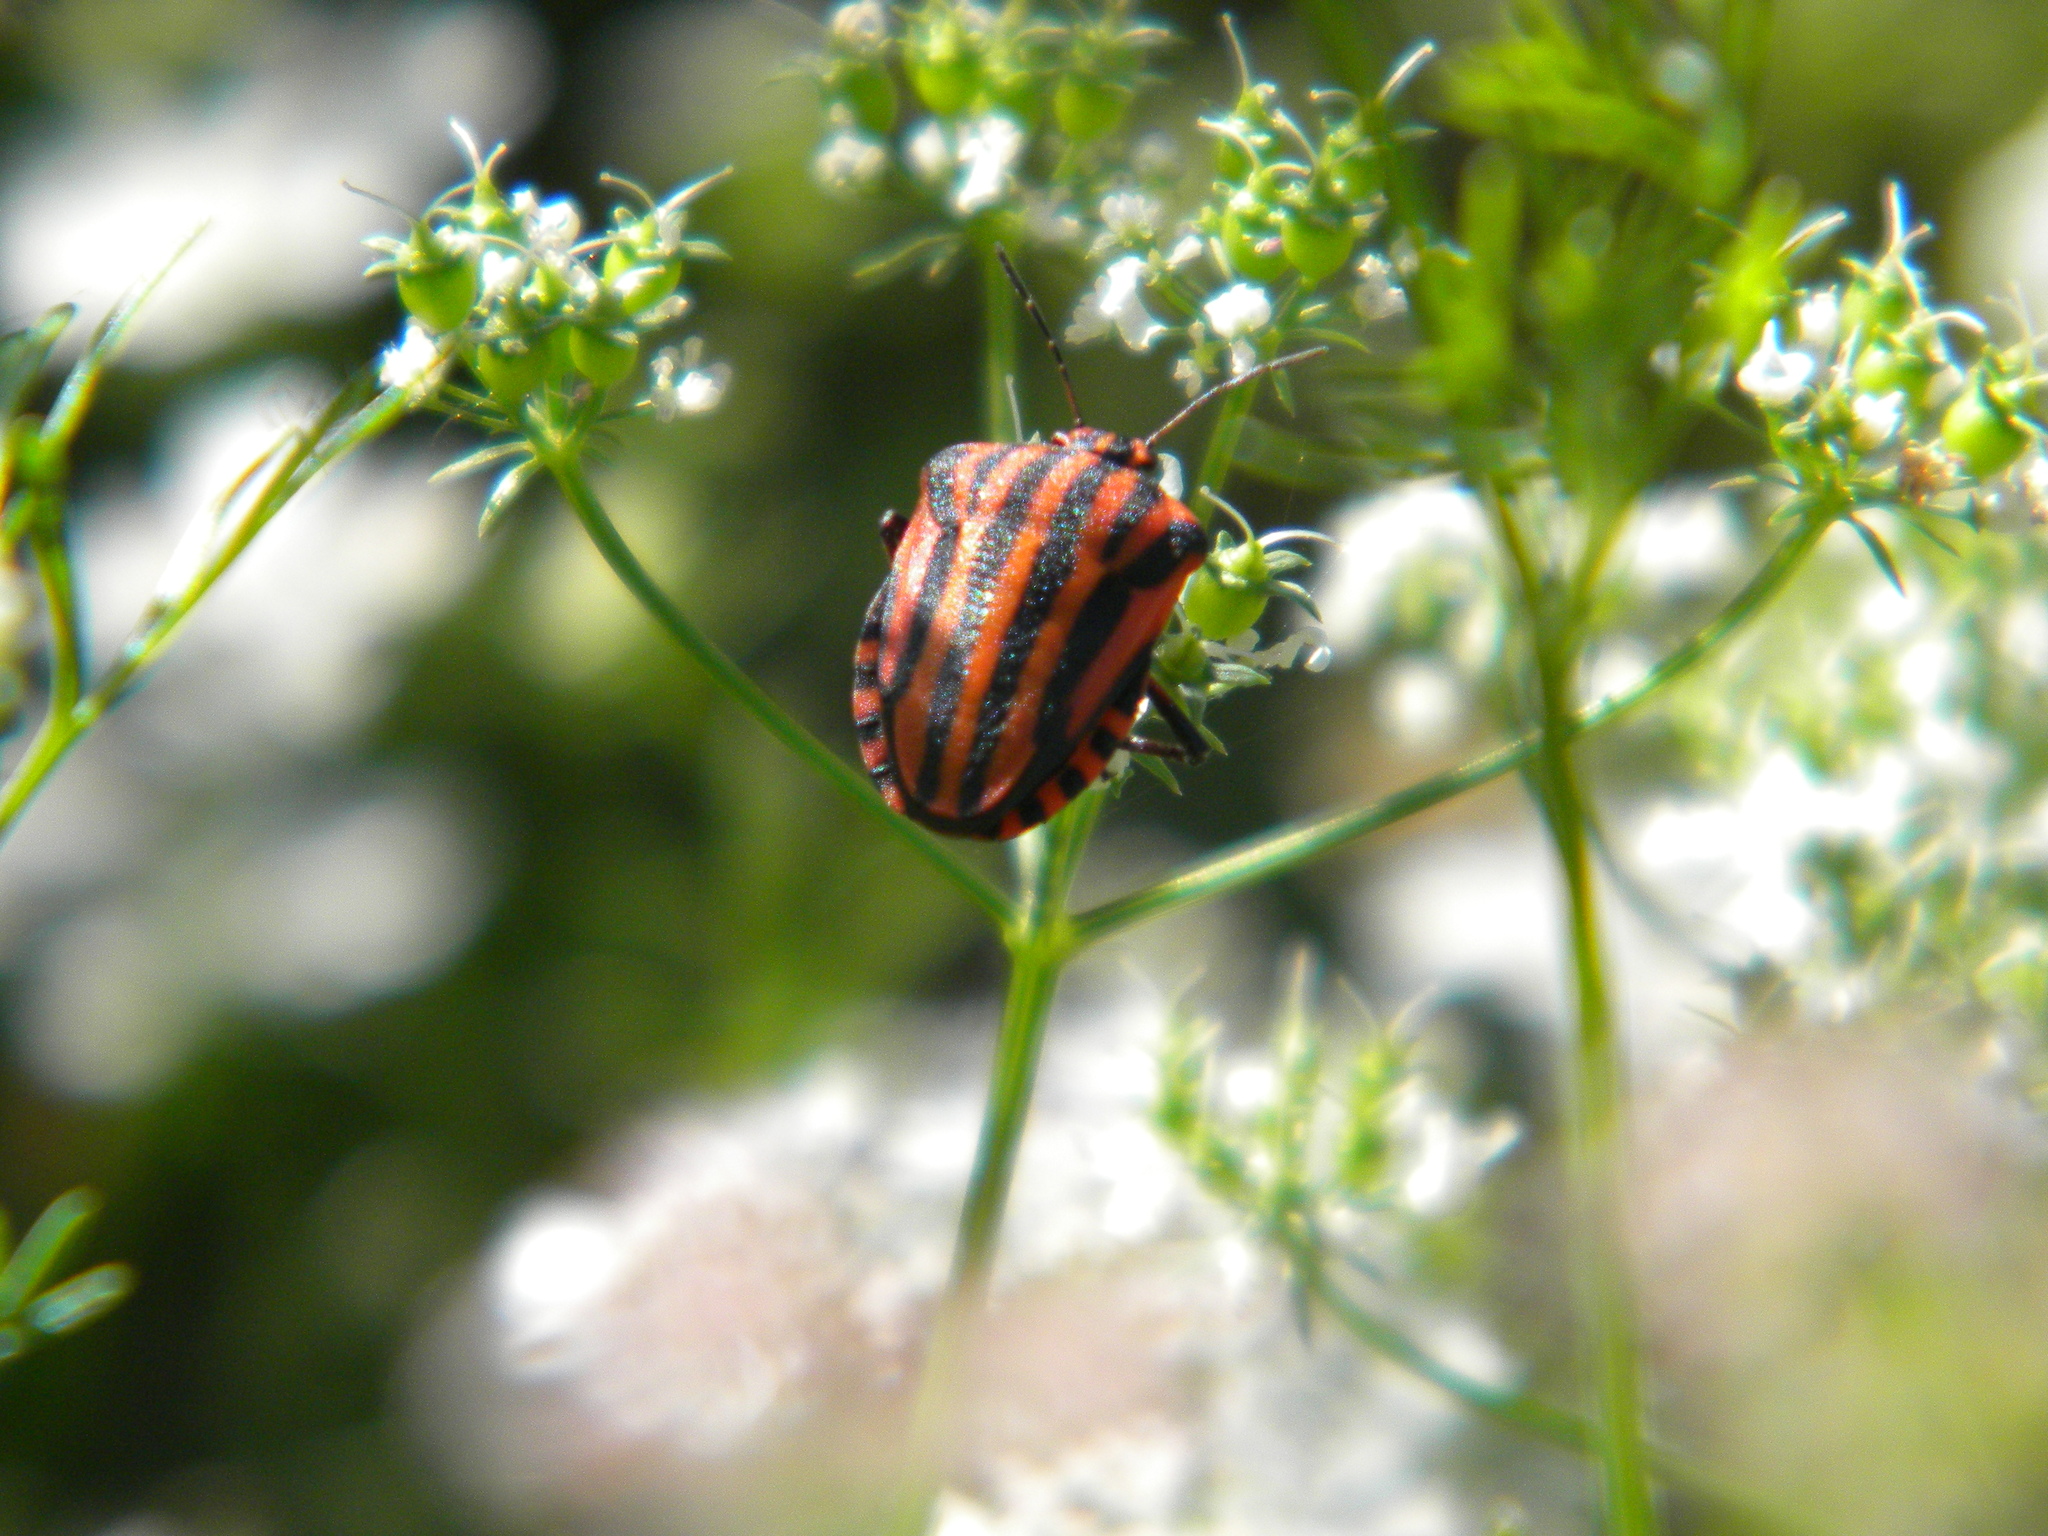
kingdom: Animalia
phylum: Arthropoda
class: Insecta
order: Hemiptera
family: Pentatomidae
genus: Graphosoma
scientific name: Graphosoma italicum
